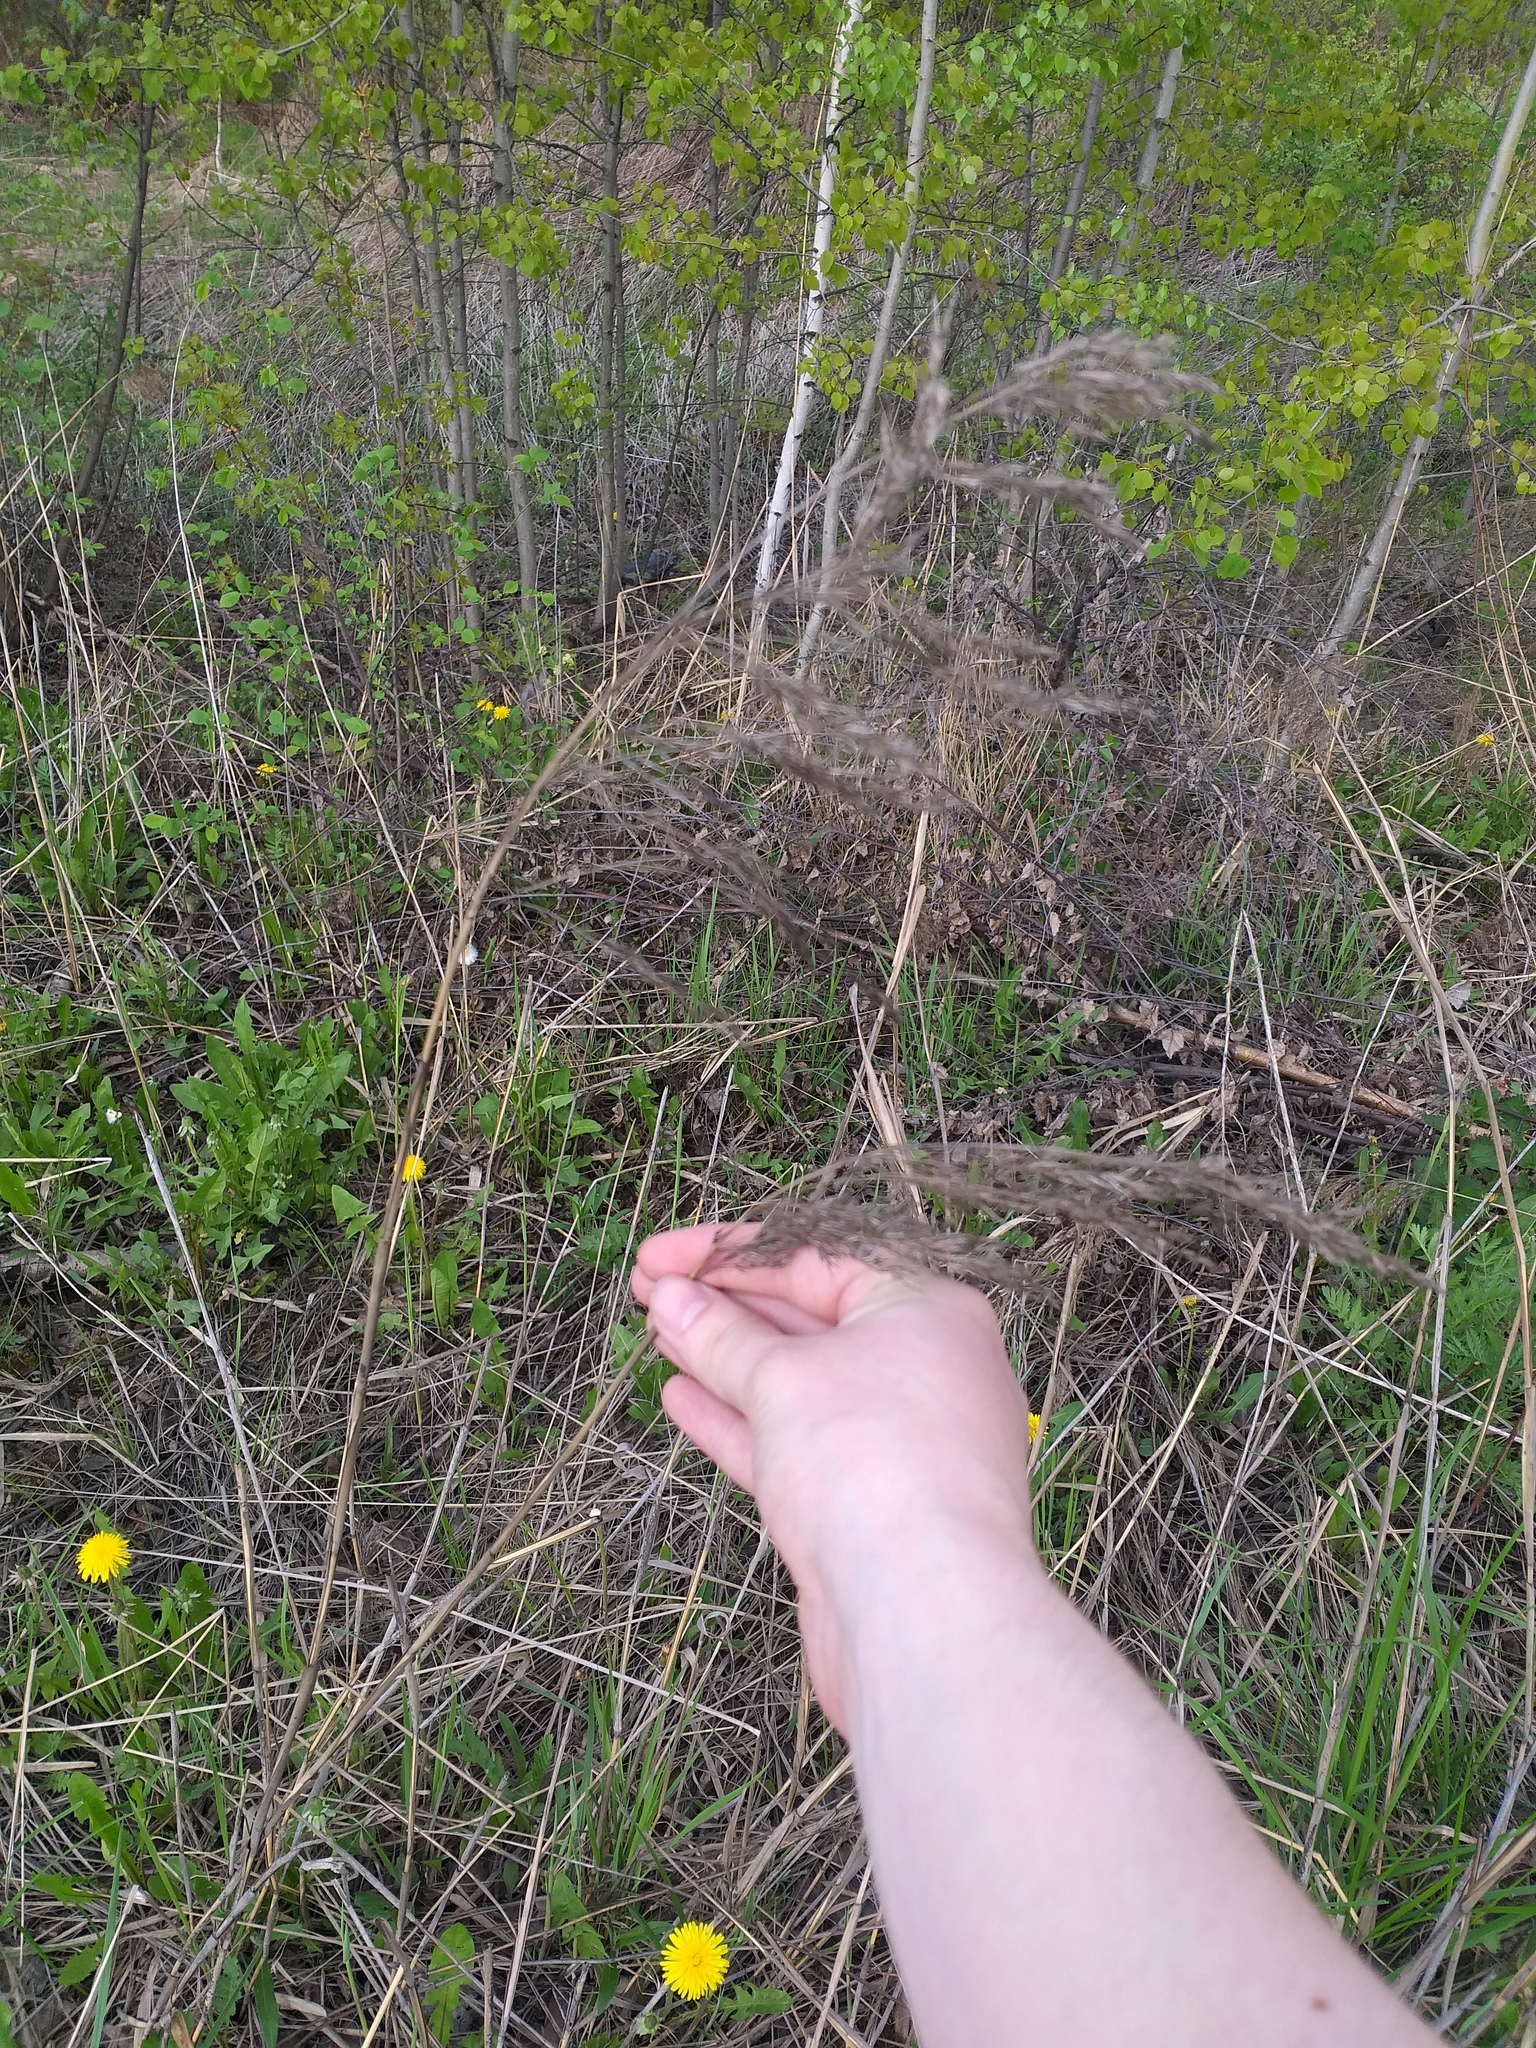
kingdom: Plantae
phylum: Tracheophyta
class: Liliopsida
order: Poales
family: Poaceae
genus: Phragmites
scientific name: Phragmites australis
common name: Common reed
